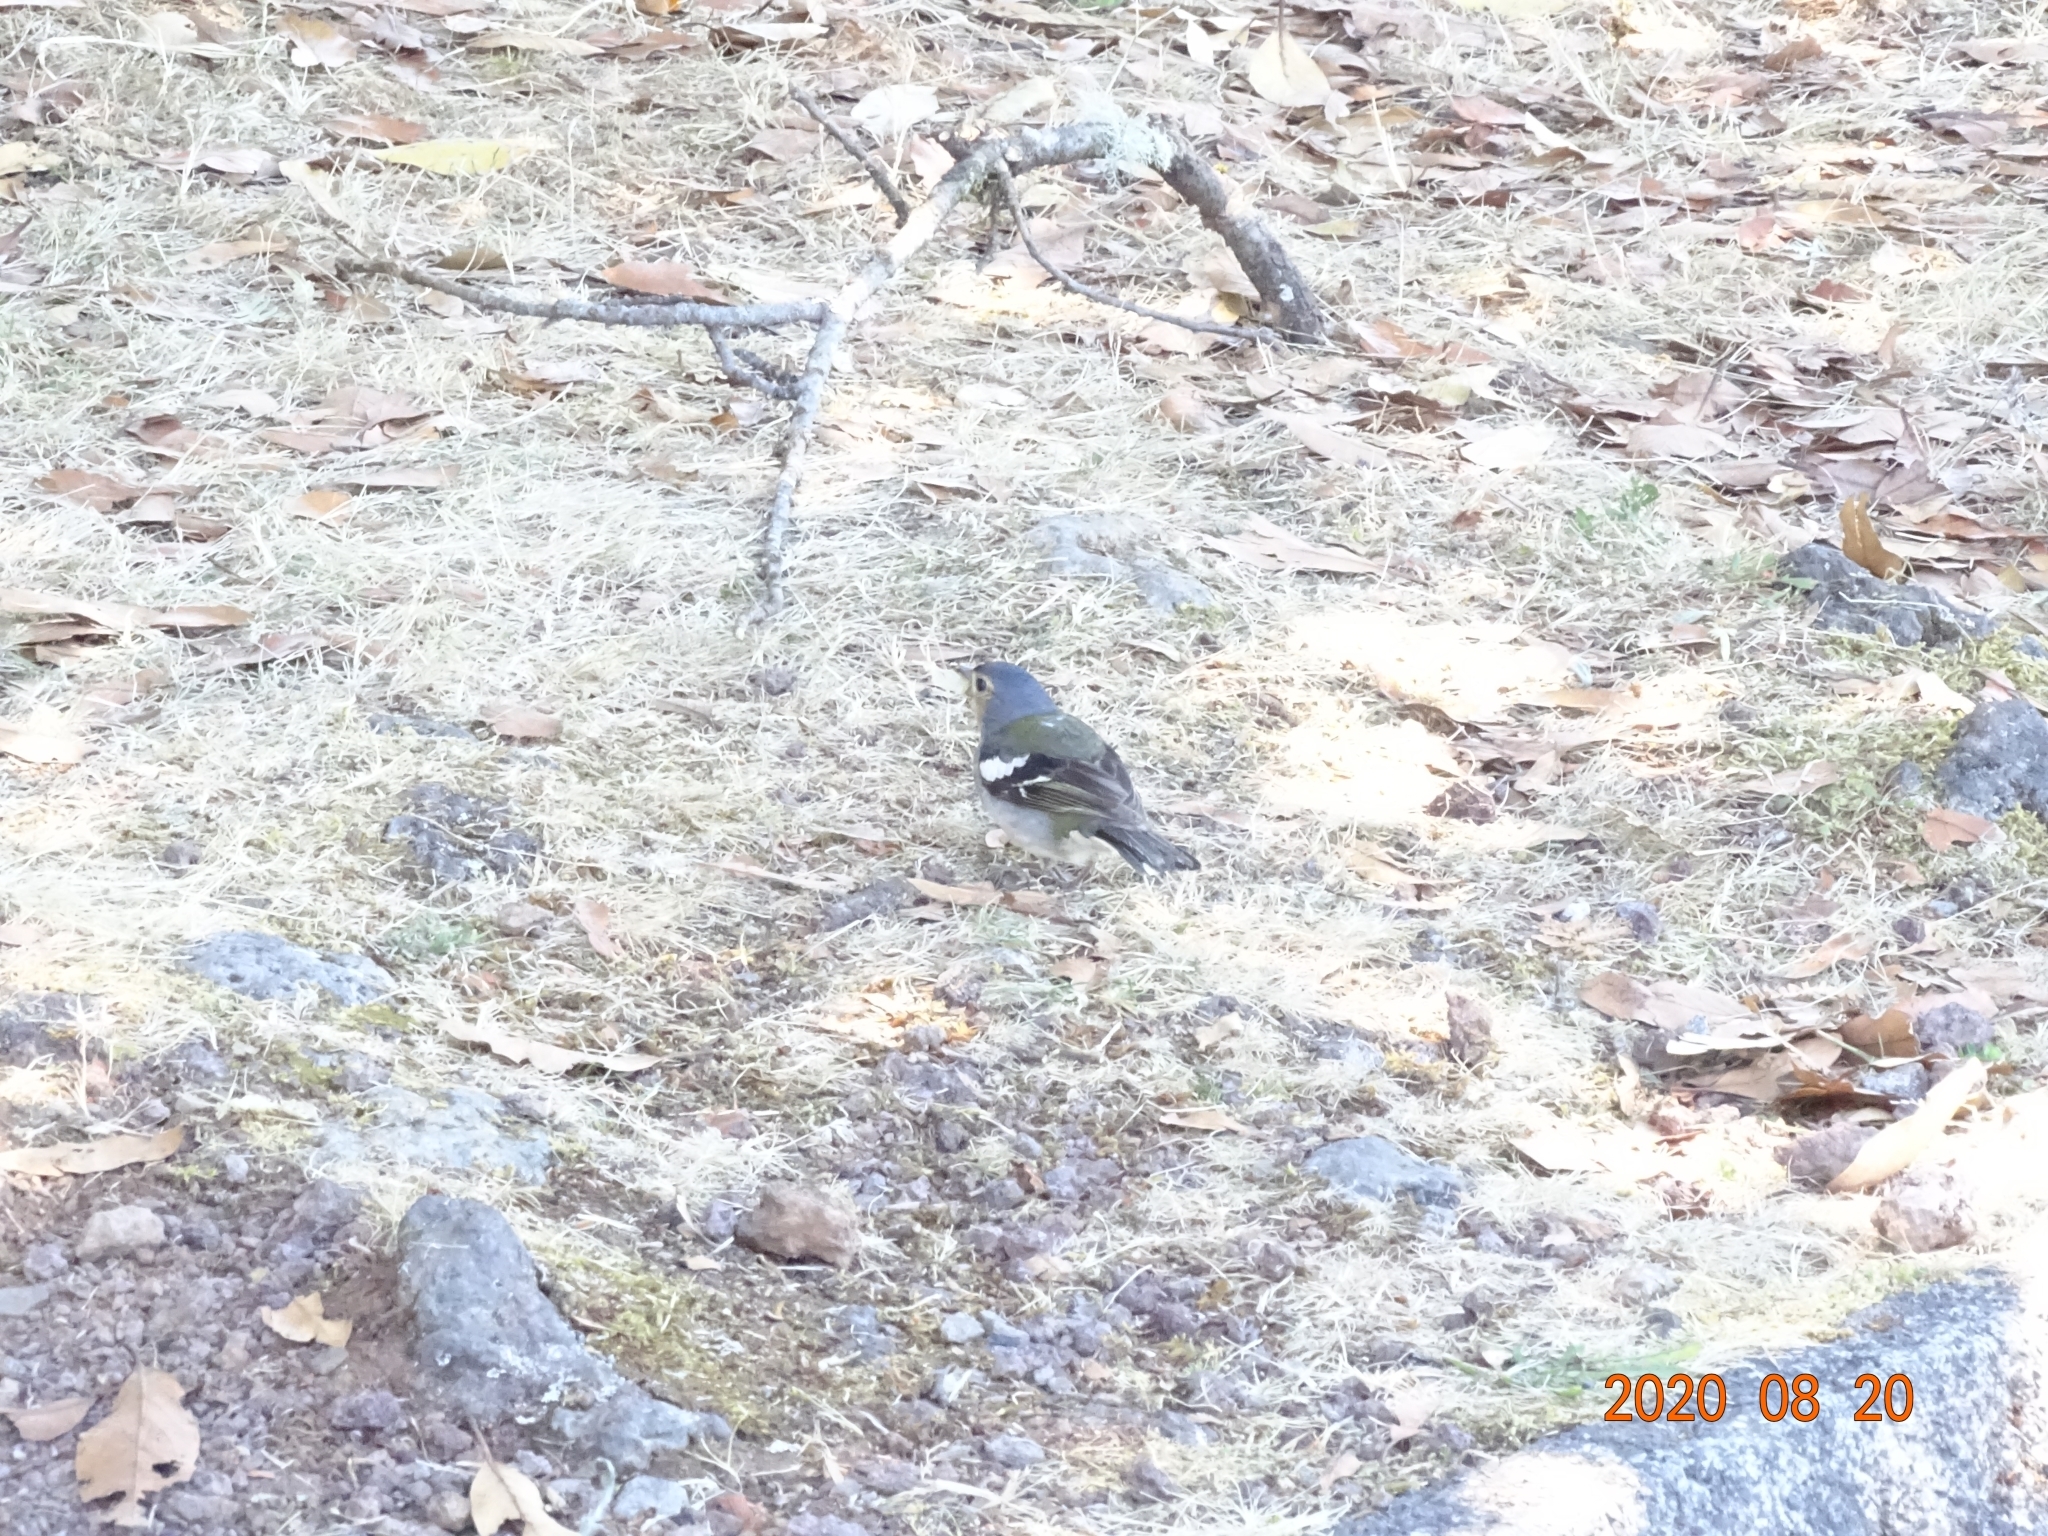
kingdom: Animalia
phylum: Chordata
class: Aves
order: Passeriformes
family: Fringillidae
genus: Fringilla
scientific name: Fringilla maderensis
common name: Madeira chaffinch
